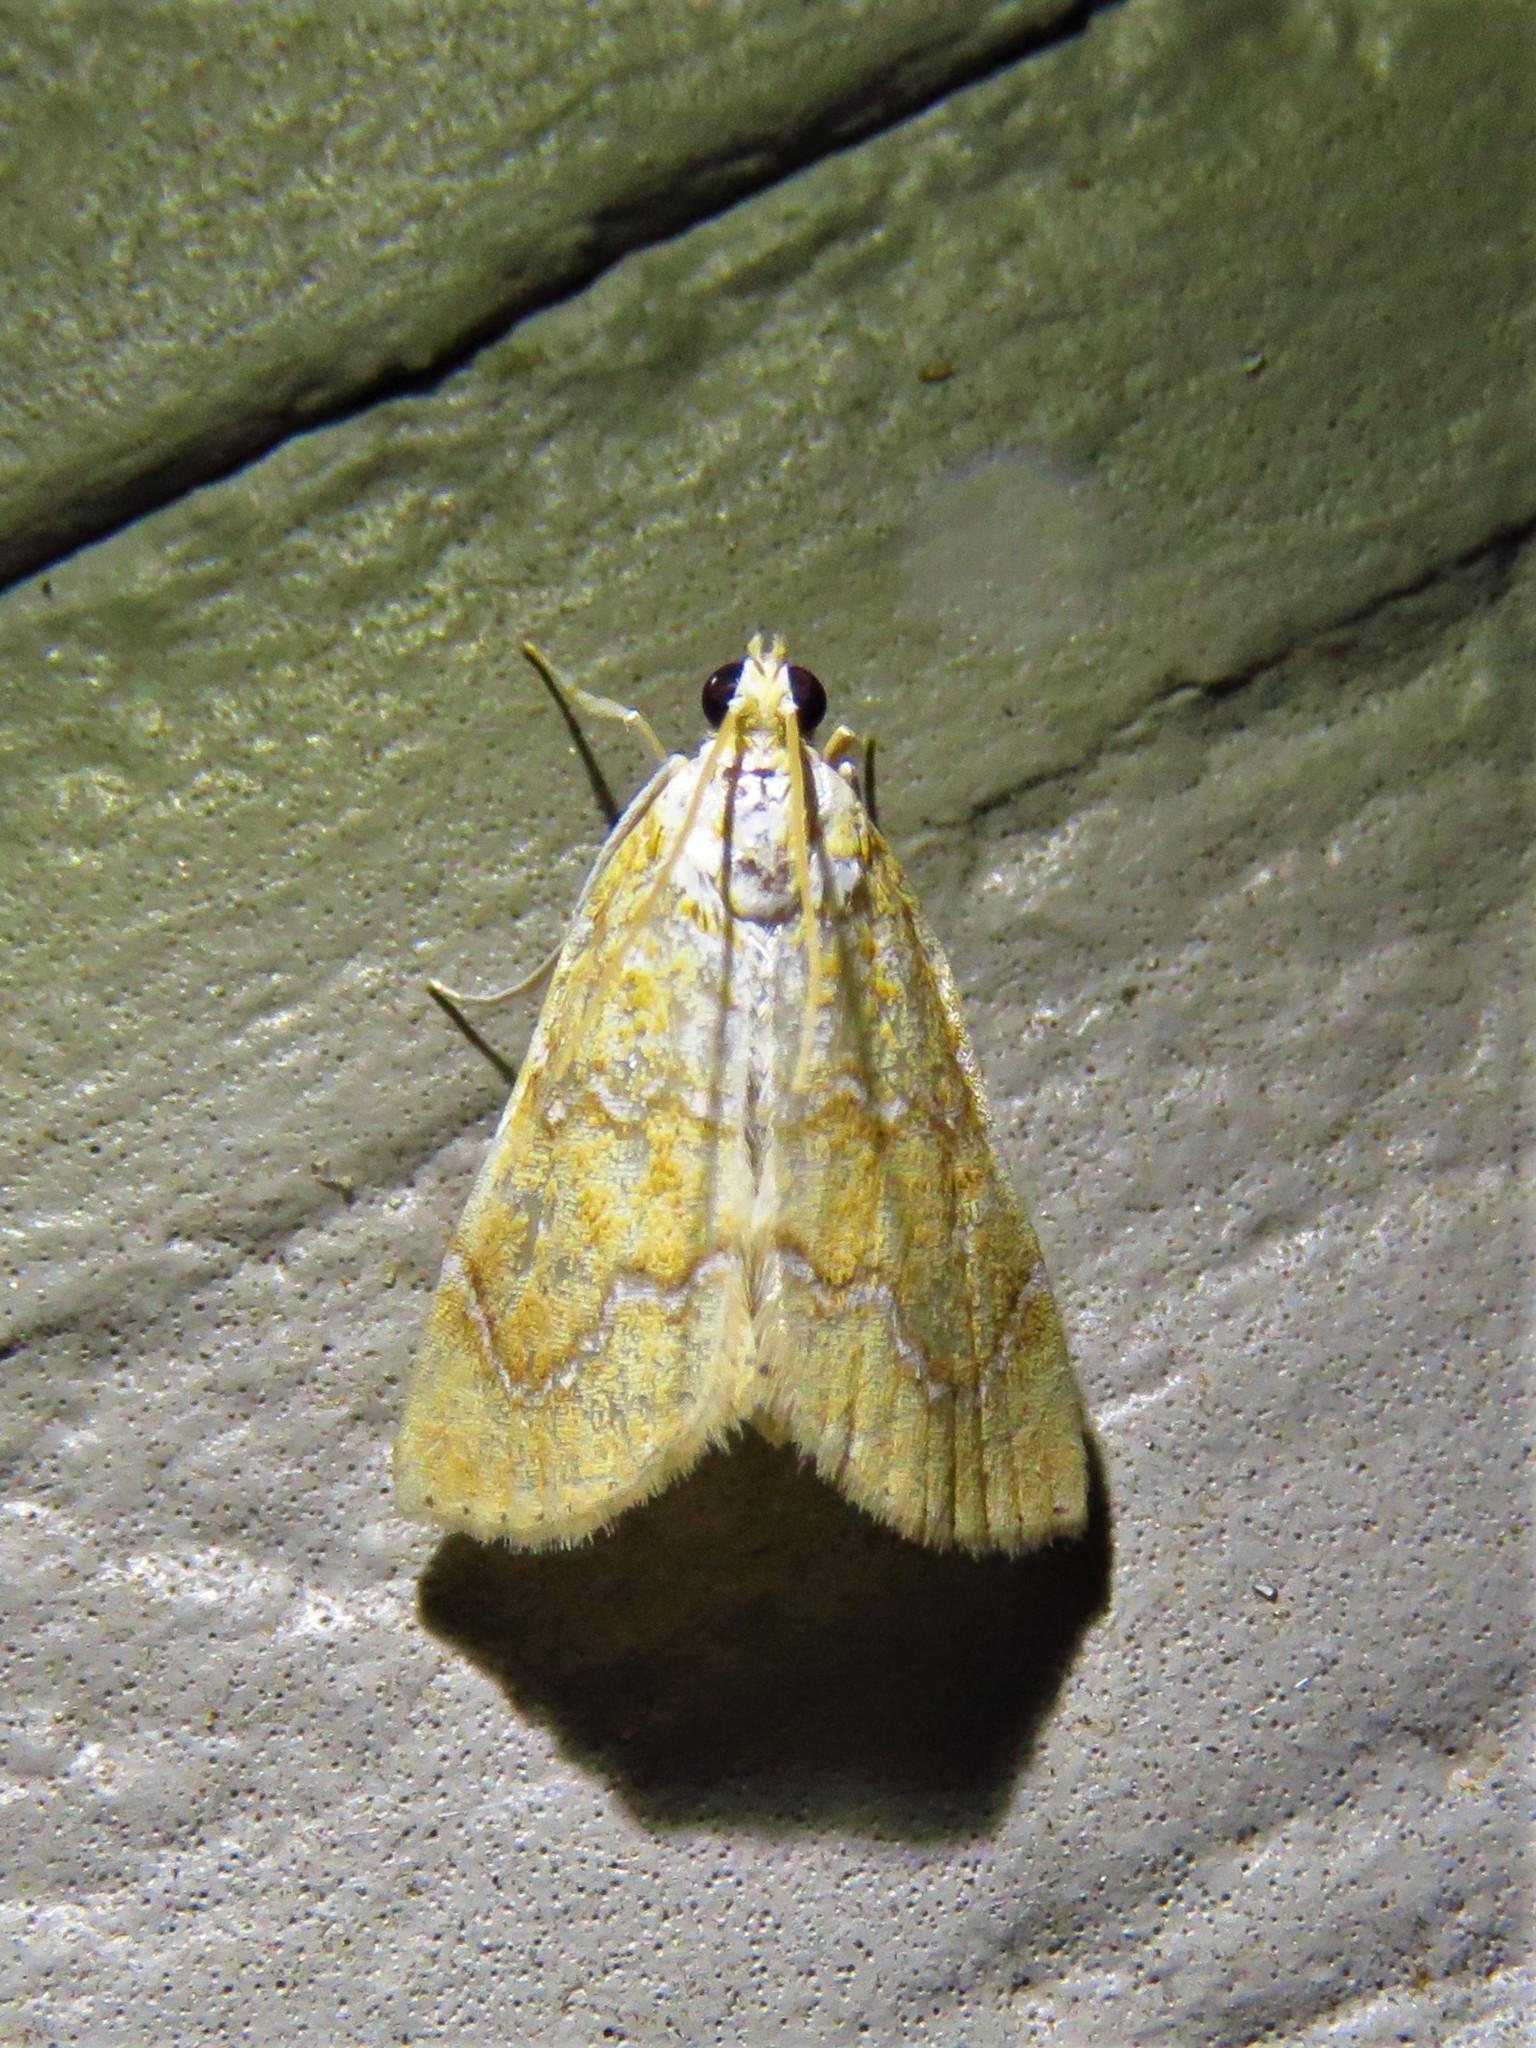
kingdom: Animalia
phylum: Arthropoda
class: Insecta
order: Lepidoptera
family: Crambidae
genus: Glaphyria
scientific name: Glaphyria sesquistrialis
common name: White-roped glaphyria
